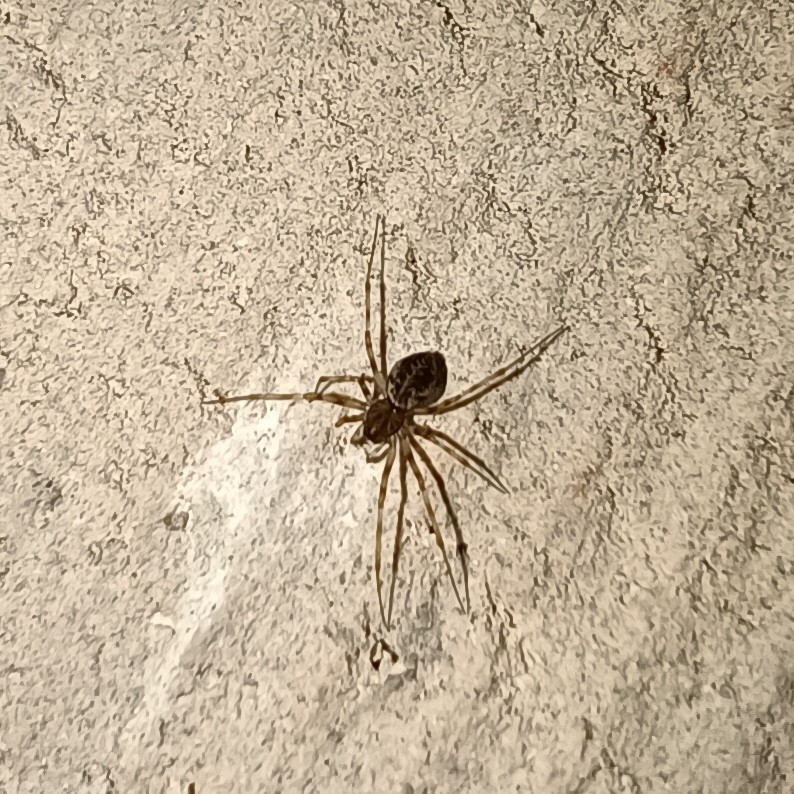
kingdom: Animalia
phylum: Arthropoda
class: Arachnida
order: Araneae
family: Linyphiidae
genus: Drapetisca
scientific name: Drapetisca socialis
